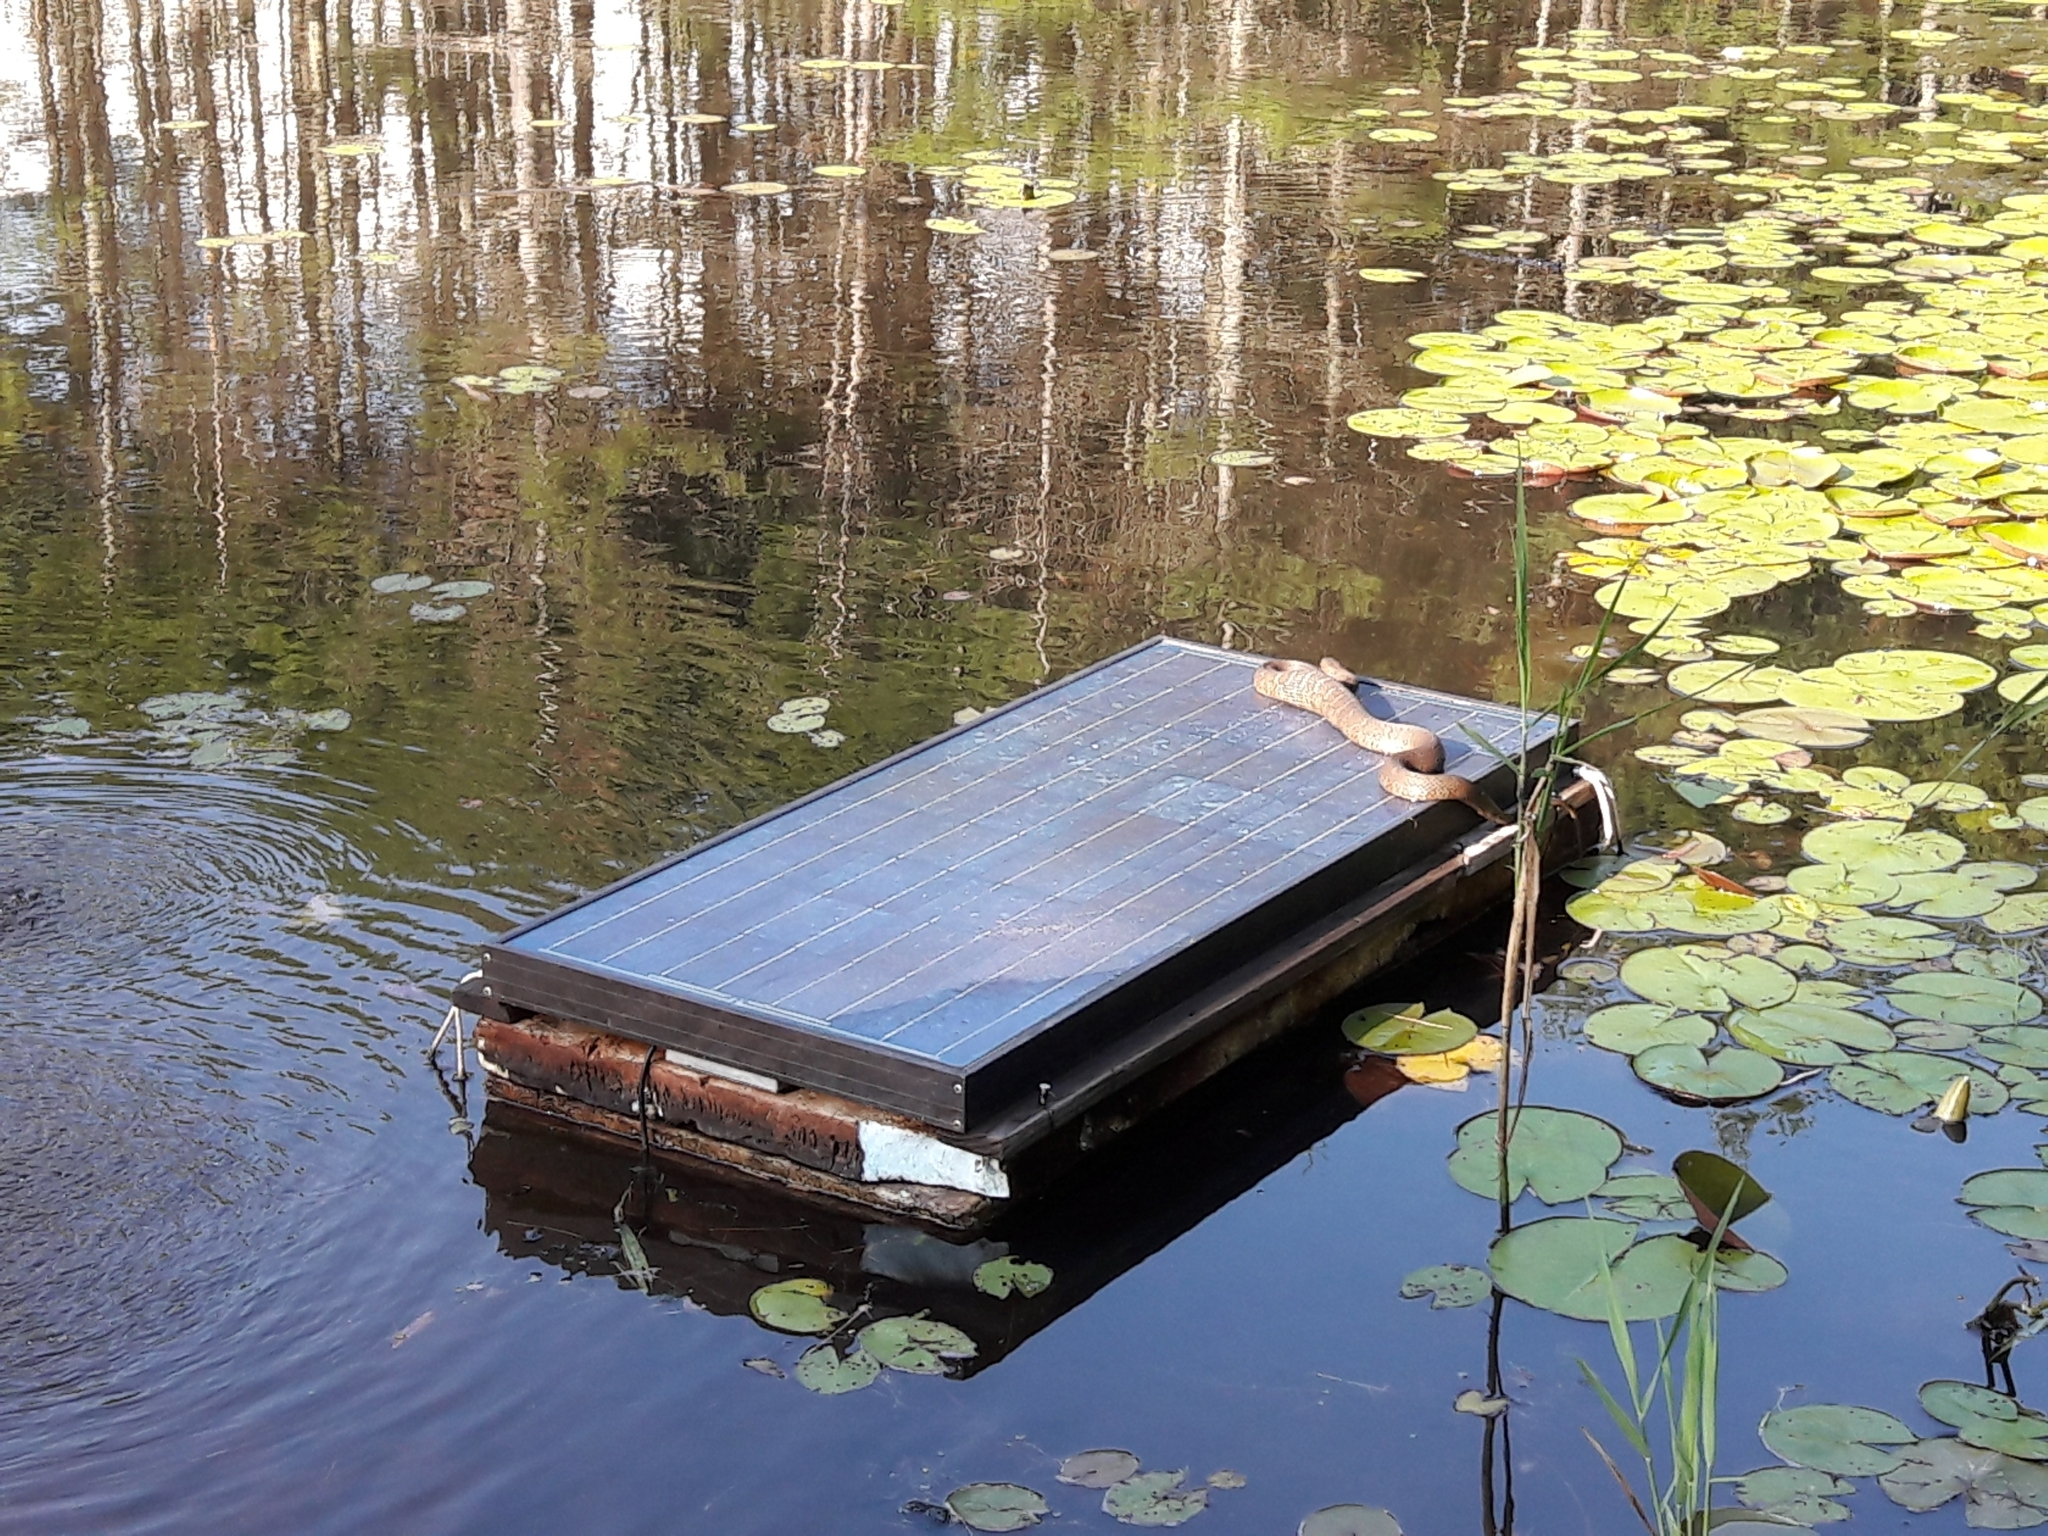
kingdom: Animalia
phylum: Chordata
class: Squamata
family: Colubridae
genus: Nerodia
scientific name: Nerodia sipedon
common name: Northern water snake
